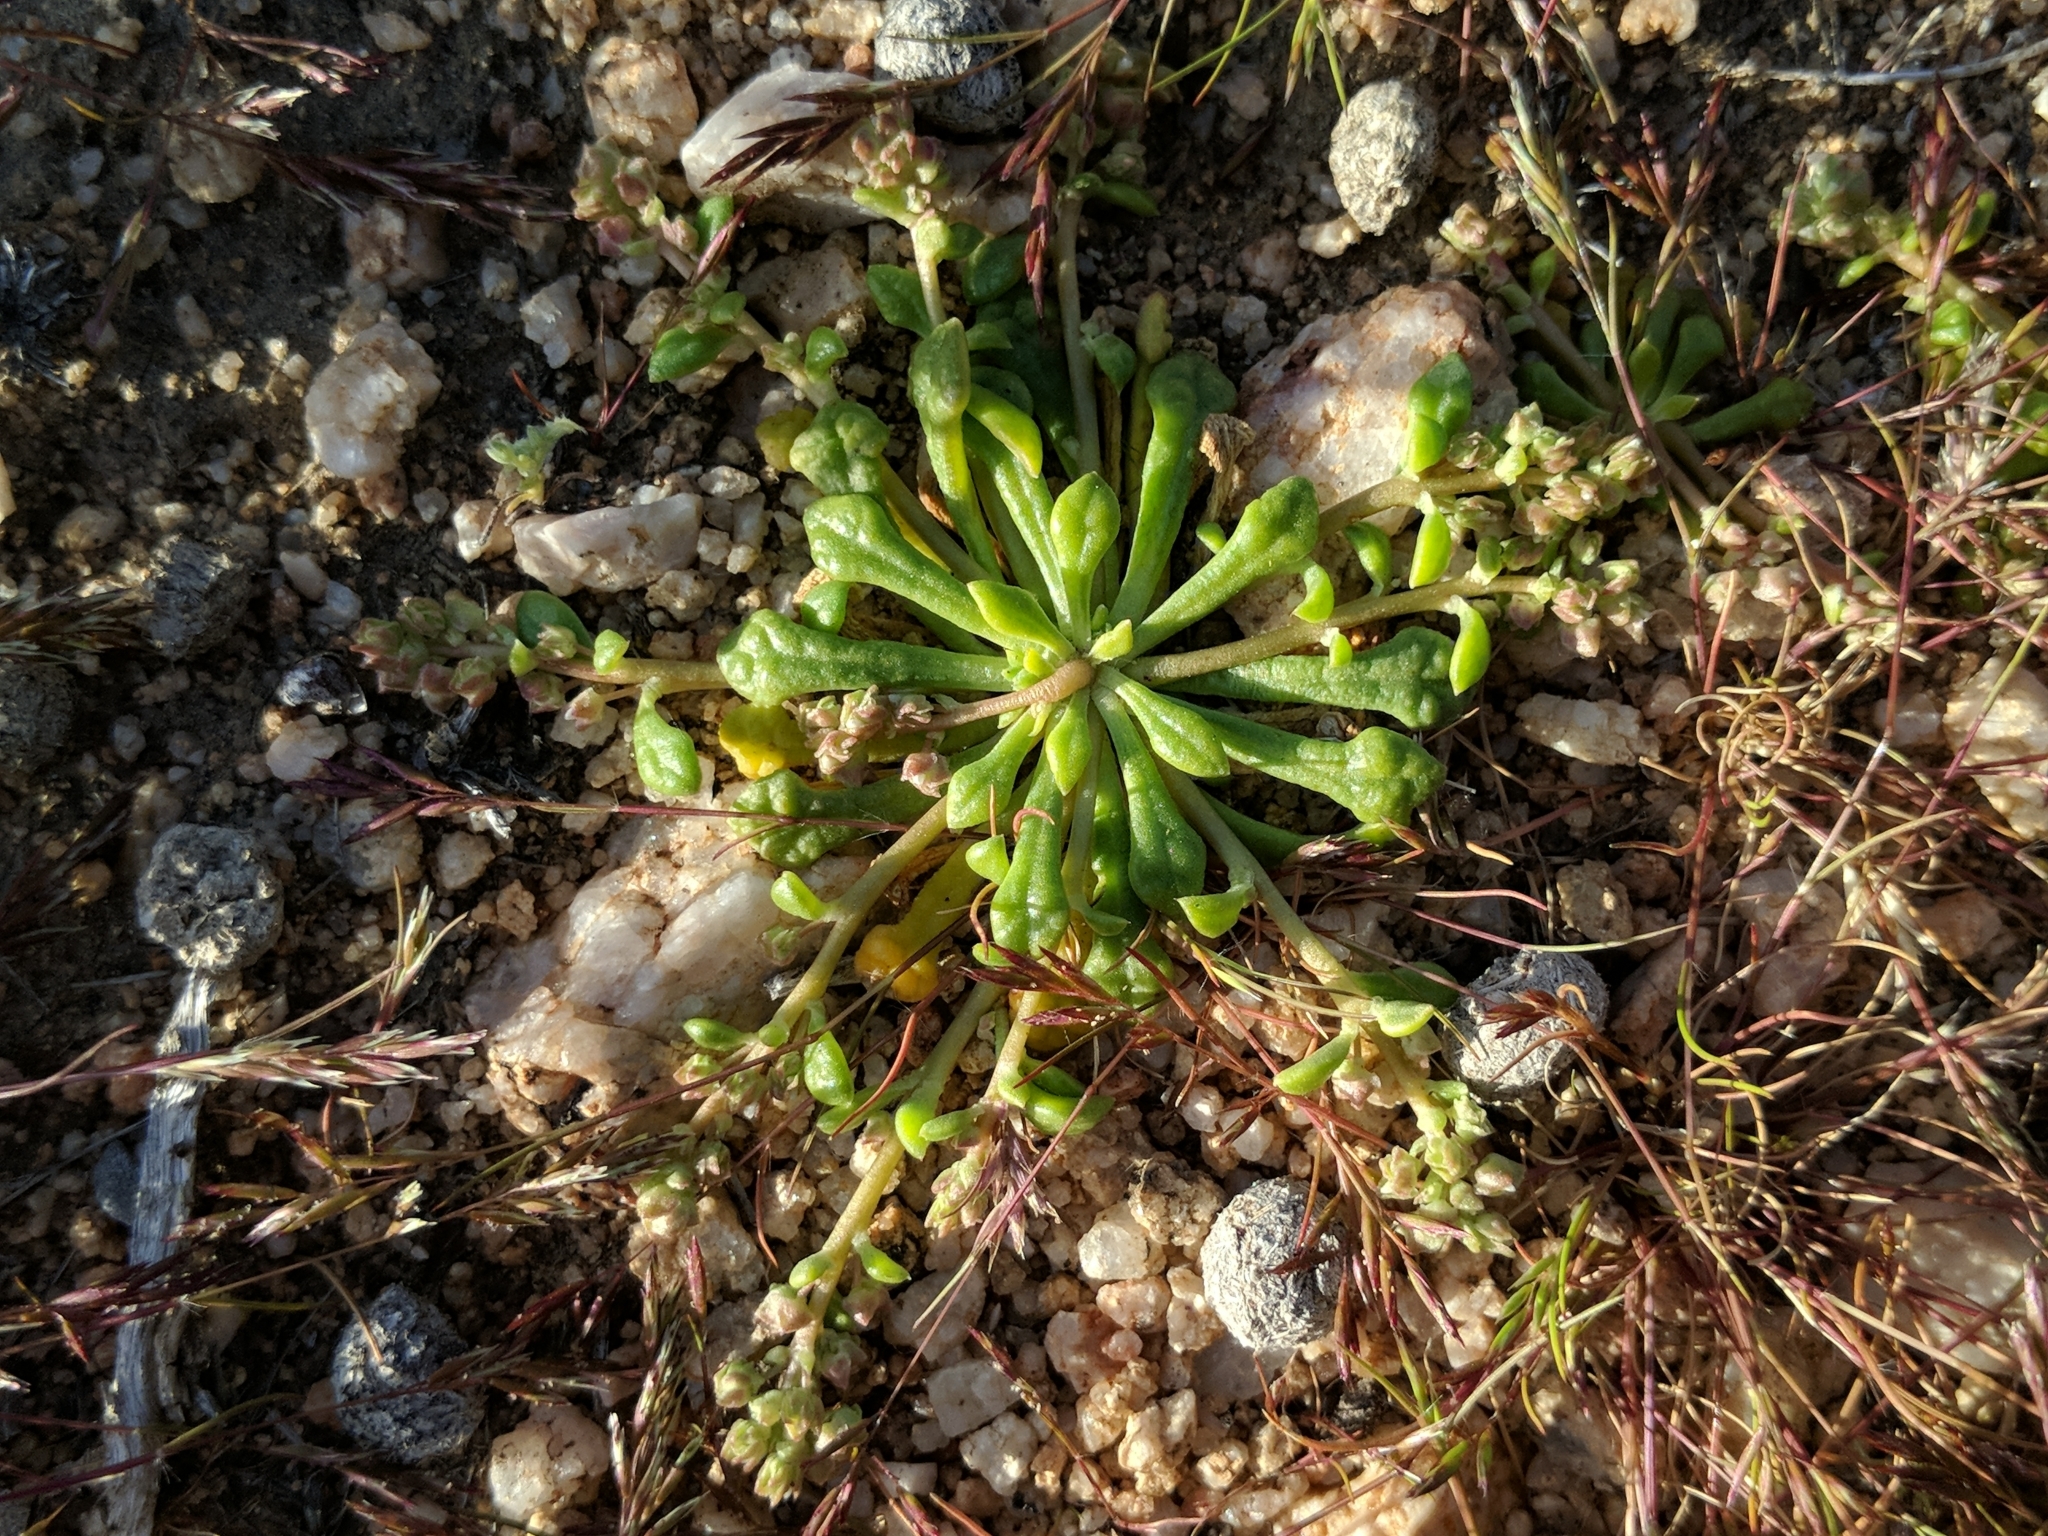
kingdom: Plantae
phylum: Tracheophyta
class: Magnoliopsida
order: Caryophyllales
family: Montiaceae
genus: Calyptridium
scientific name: Calyptridium monandrum
